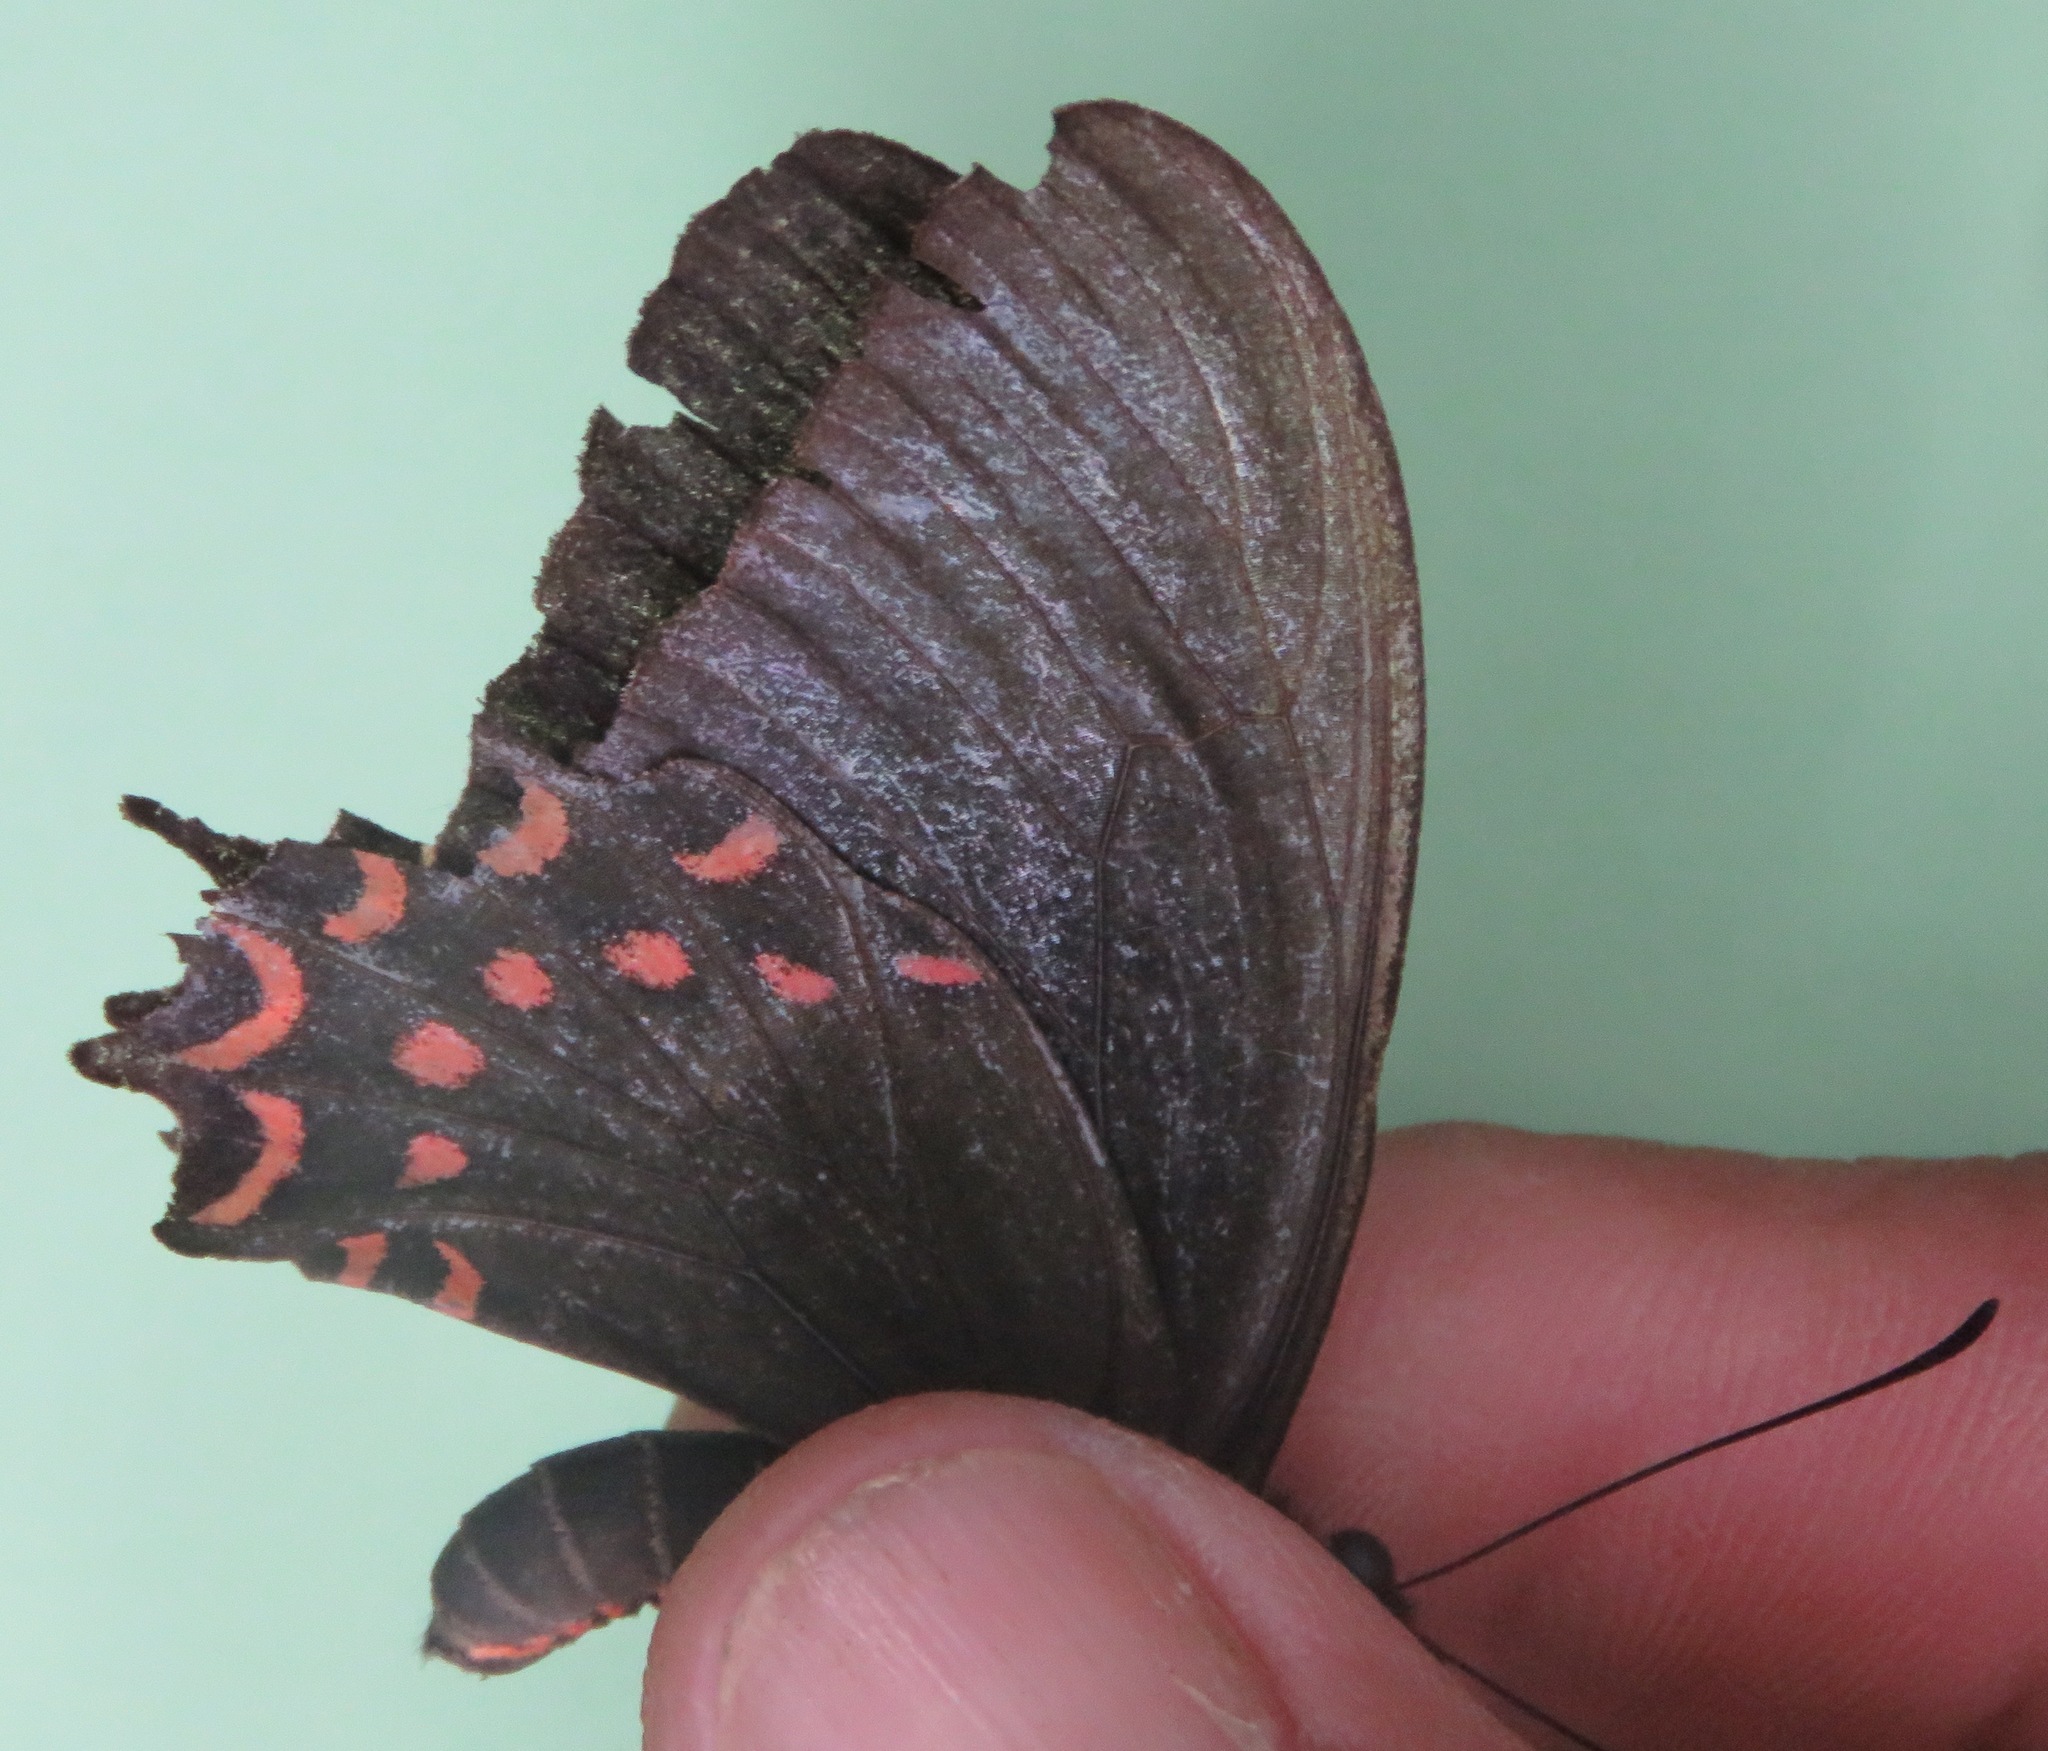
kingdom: Animalia
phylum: Arthropoda
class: Insecta
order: Lepidoptera
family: Papilionidae
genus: Parides
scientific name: Parides photinus
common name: Pink-spotted cattleheart
